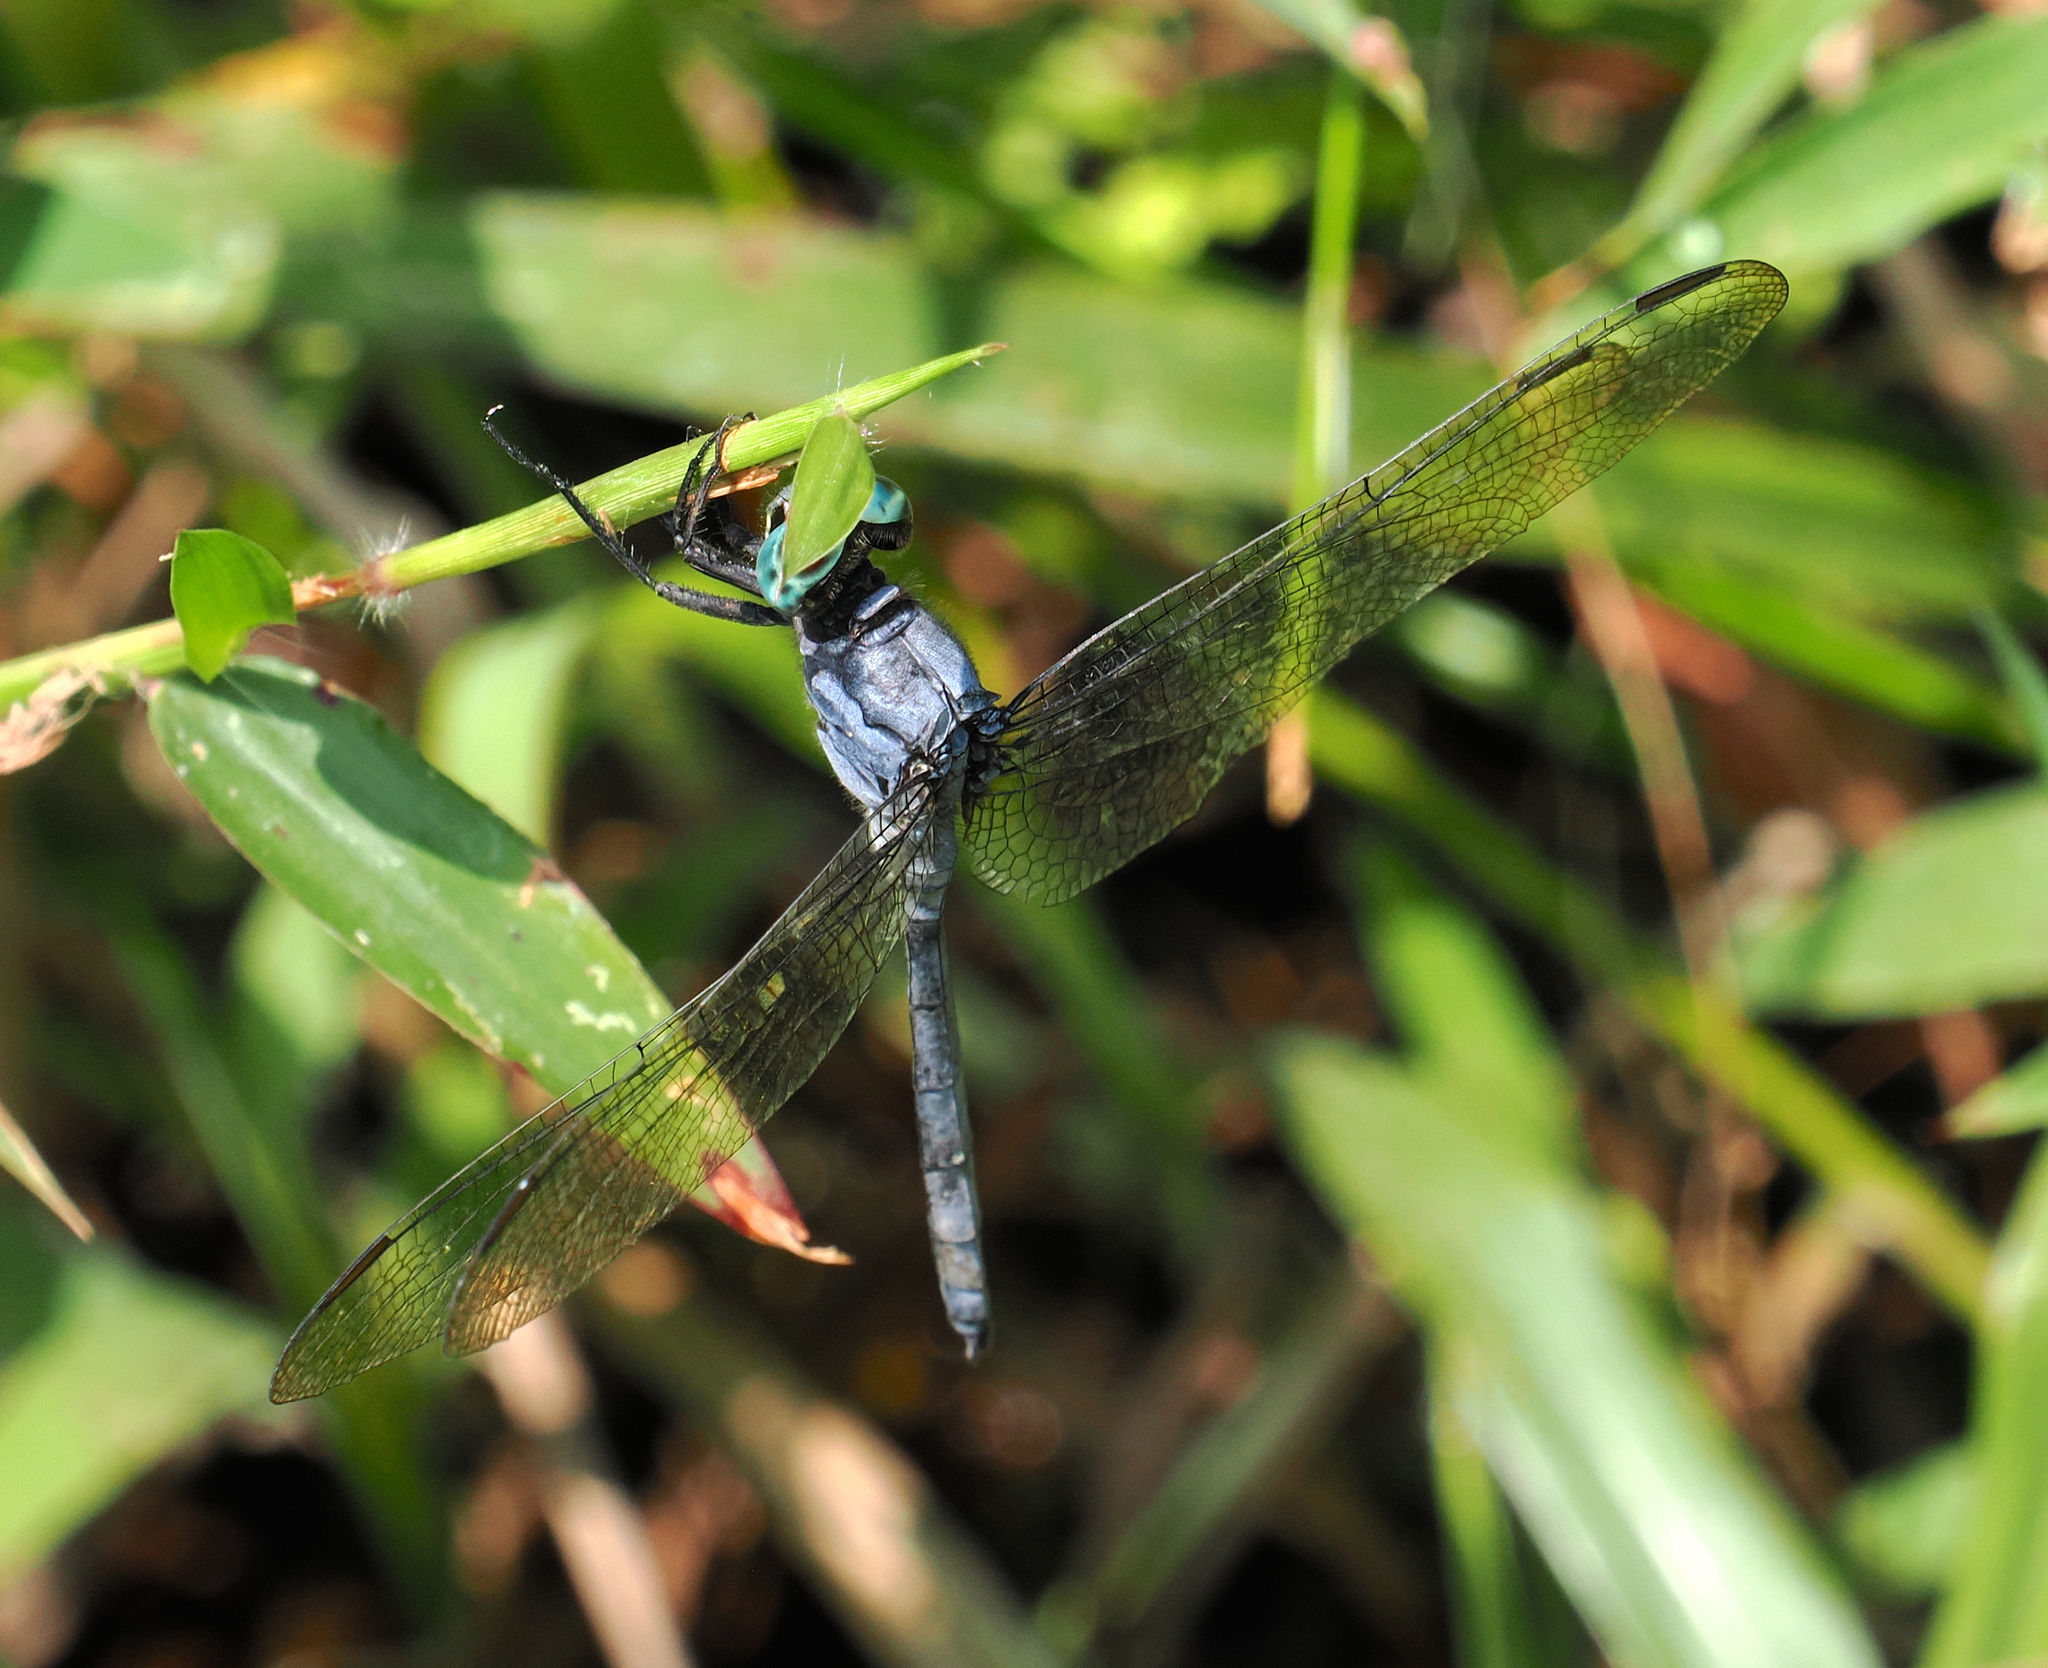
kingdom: Animalia
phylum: Arthropoda
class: Insecta
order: Odonata
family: Libellulidae
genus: Orthetrum
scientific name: Orthetrum luzonicum
